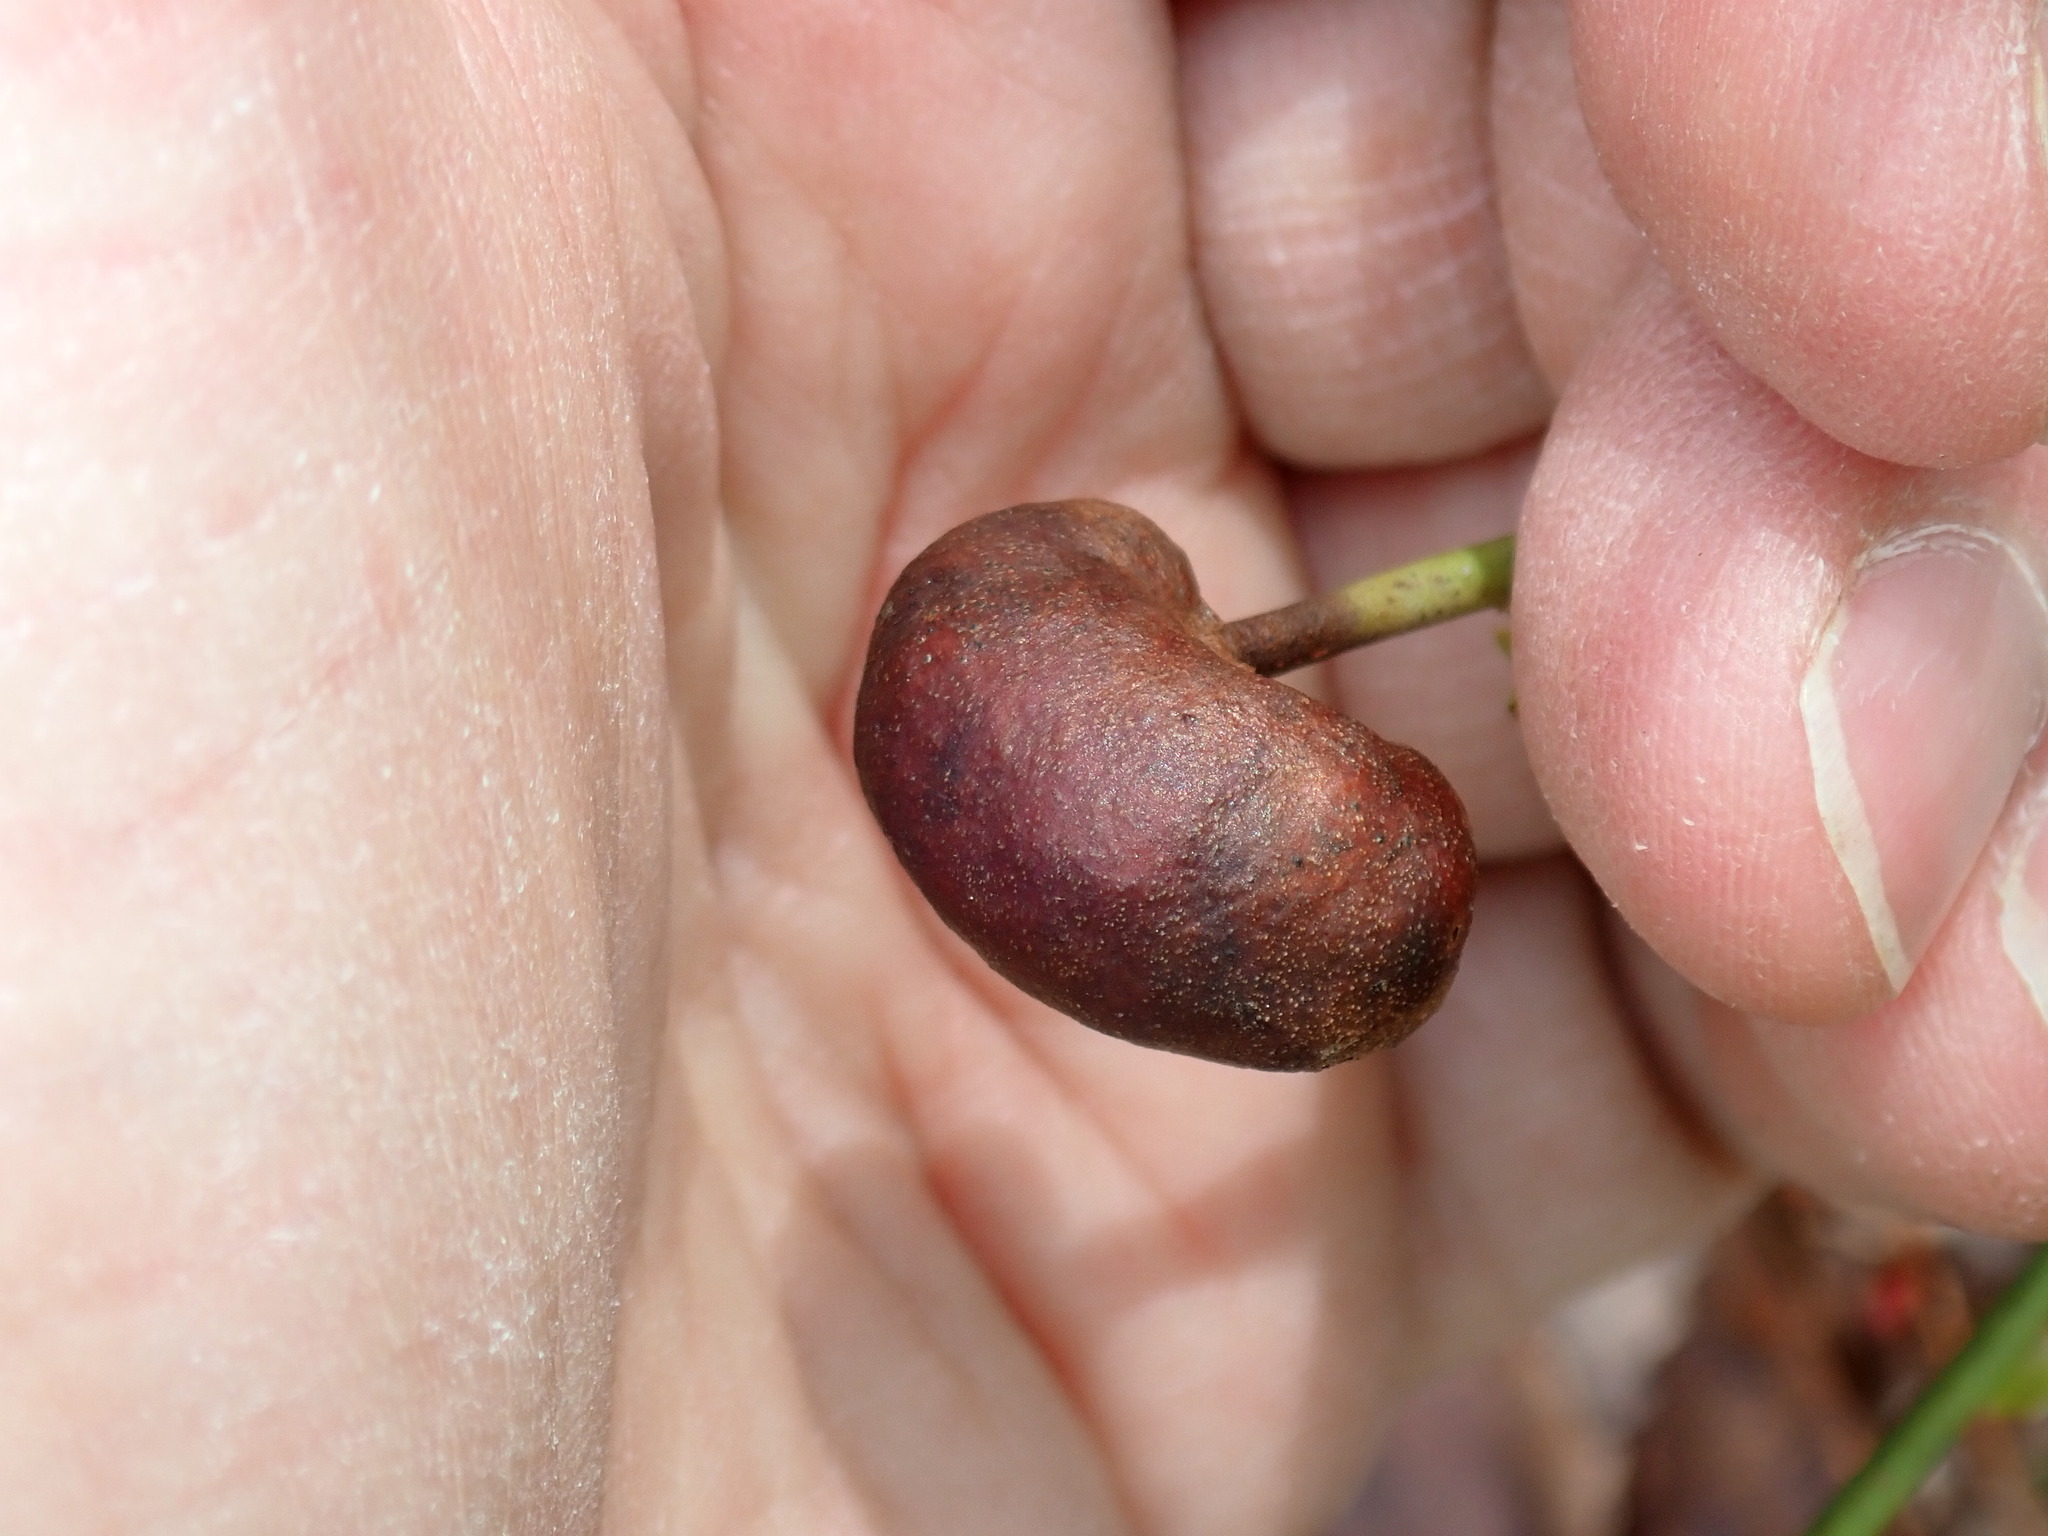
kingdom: Animalia
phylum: Arthropoda
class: Insecta
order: Hymenoptera
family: Pteromalidae
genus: Hemadas
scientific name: Hemadas nubilipennis
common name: Blueberry stem gall wasp
